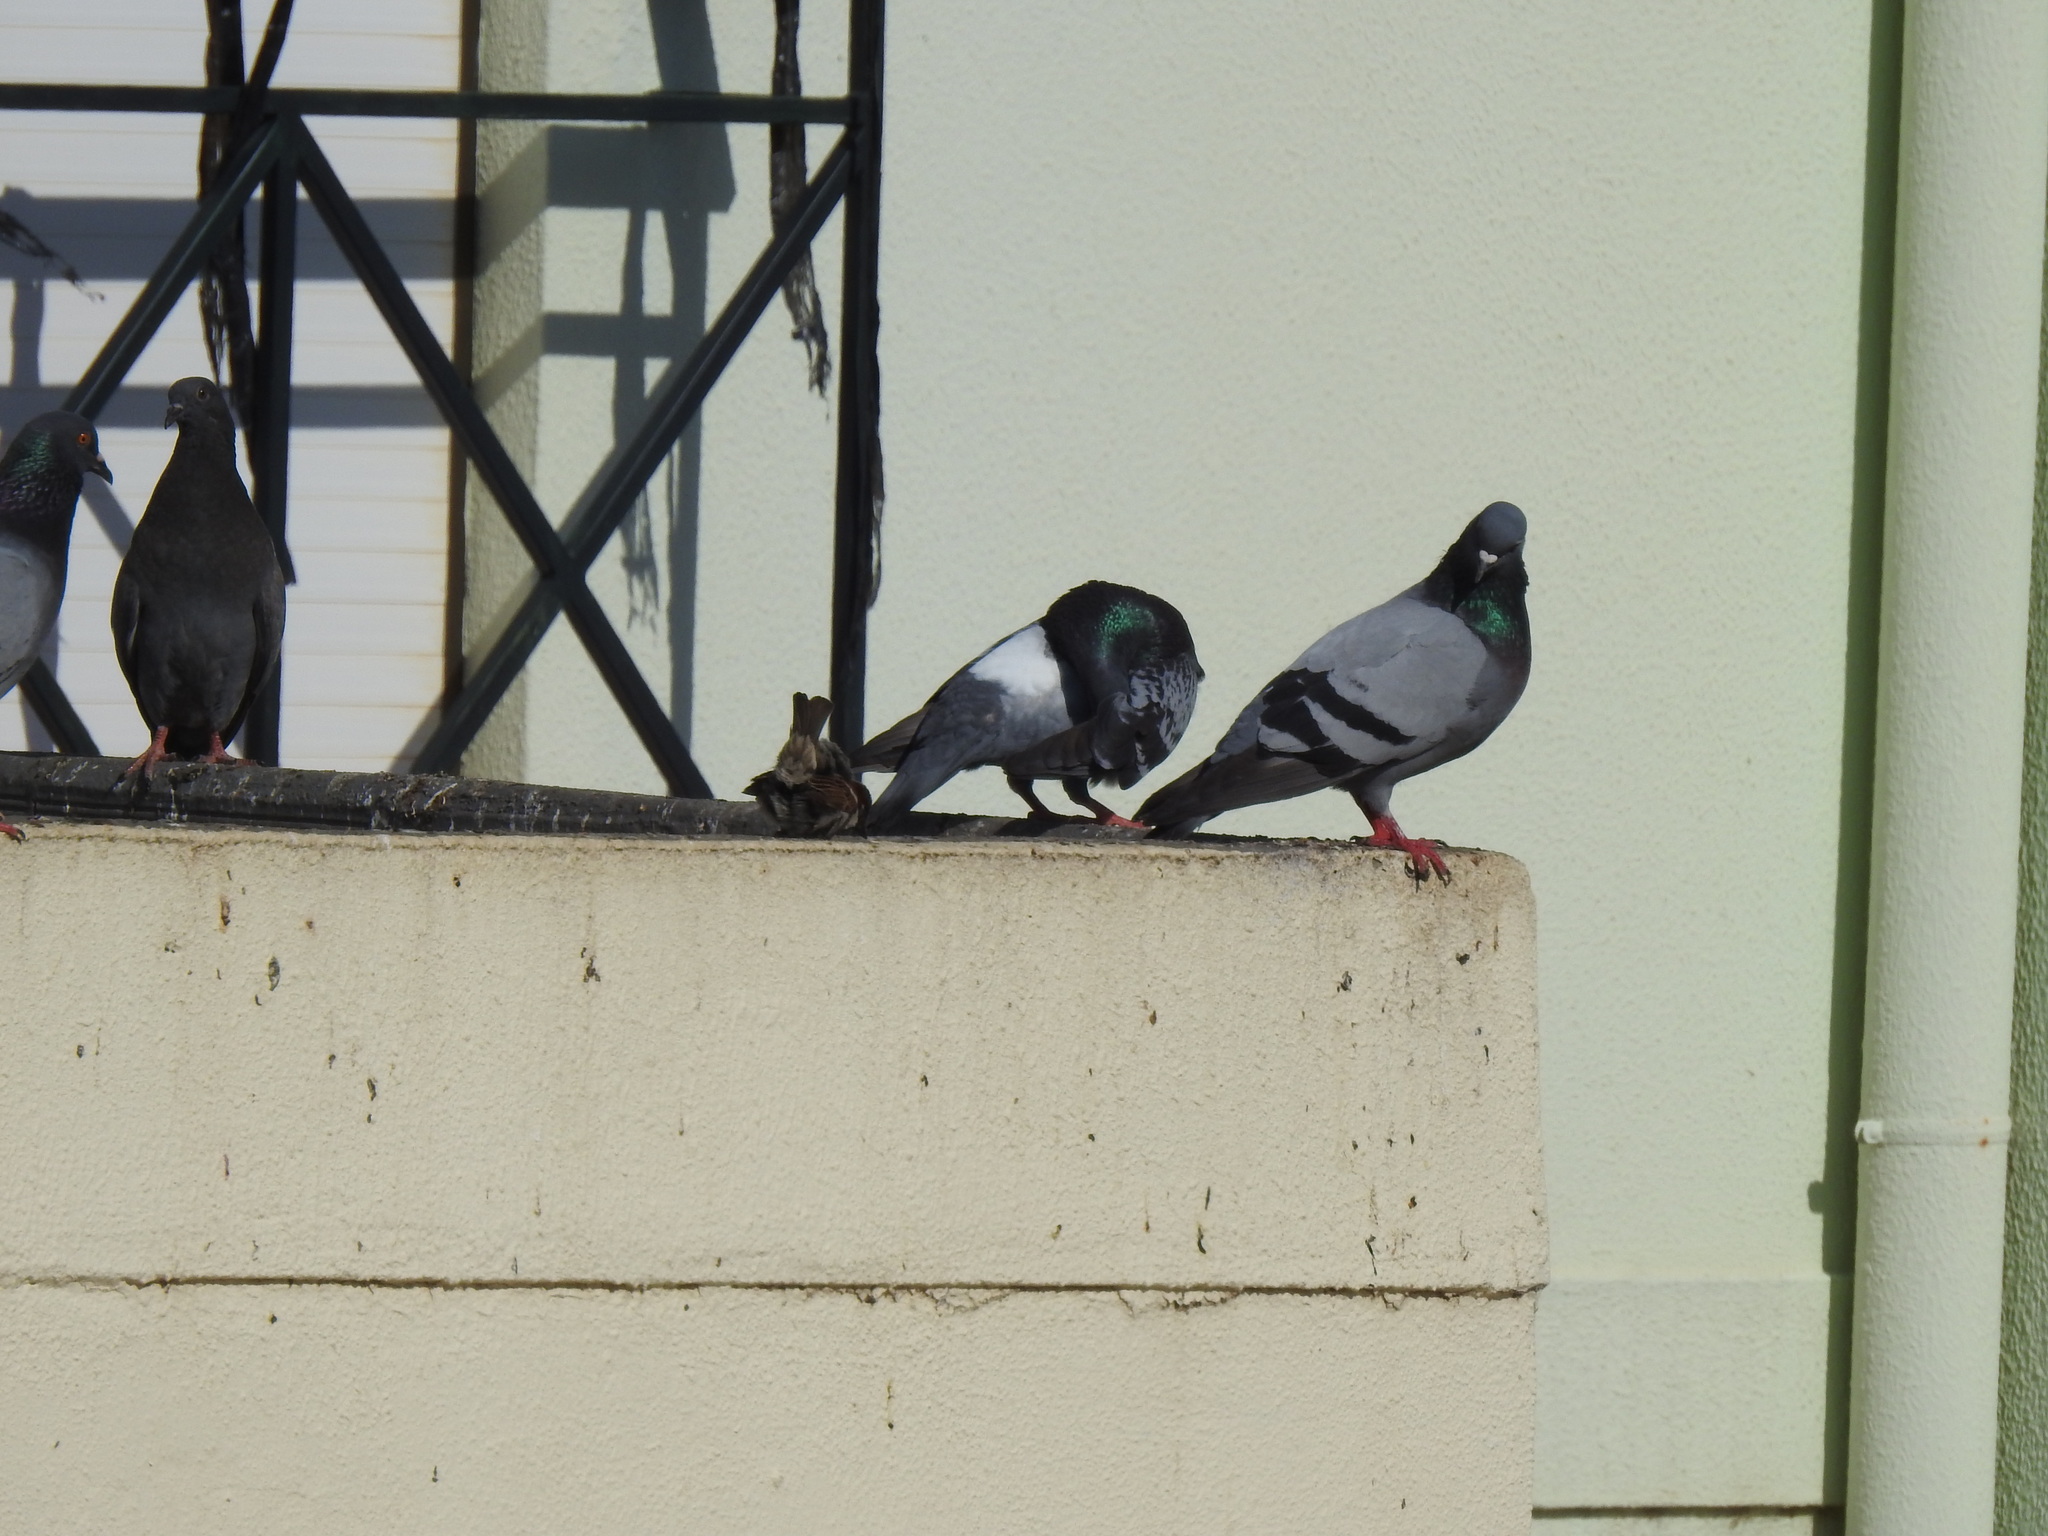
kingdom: Animalia
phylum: Chordata
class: Aves
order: Columbiformes
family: Columbidae
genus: Columba
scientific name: Columba livia
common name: Rock pigeon
